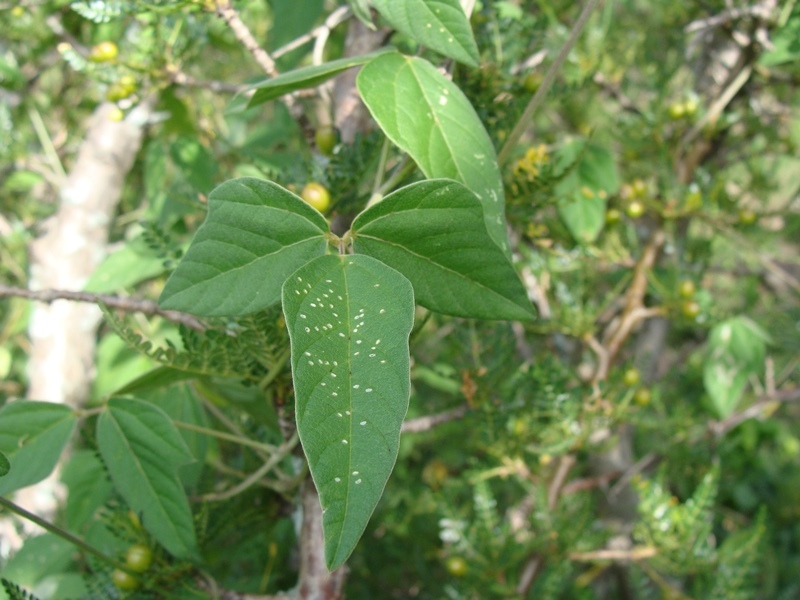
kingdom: Plantae
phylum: Tracheophyta
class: Magnoliopsida
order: Fabales
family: Fabaceae
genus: Macroptilium
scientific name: Macroptilium atropurpureum
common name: Purple bushbean
